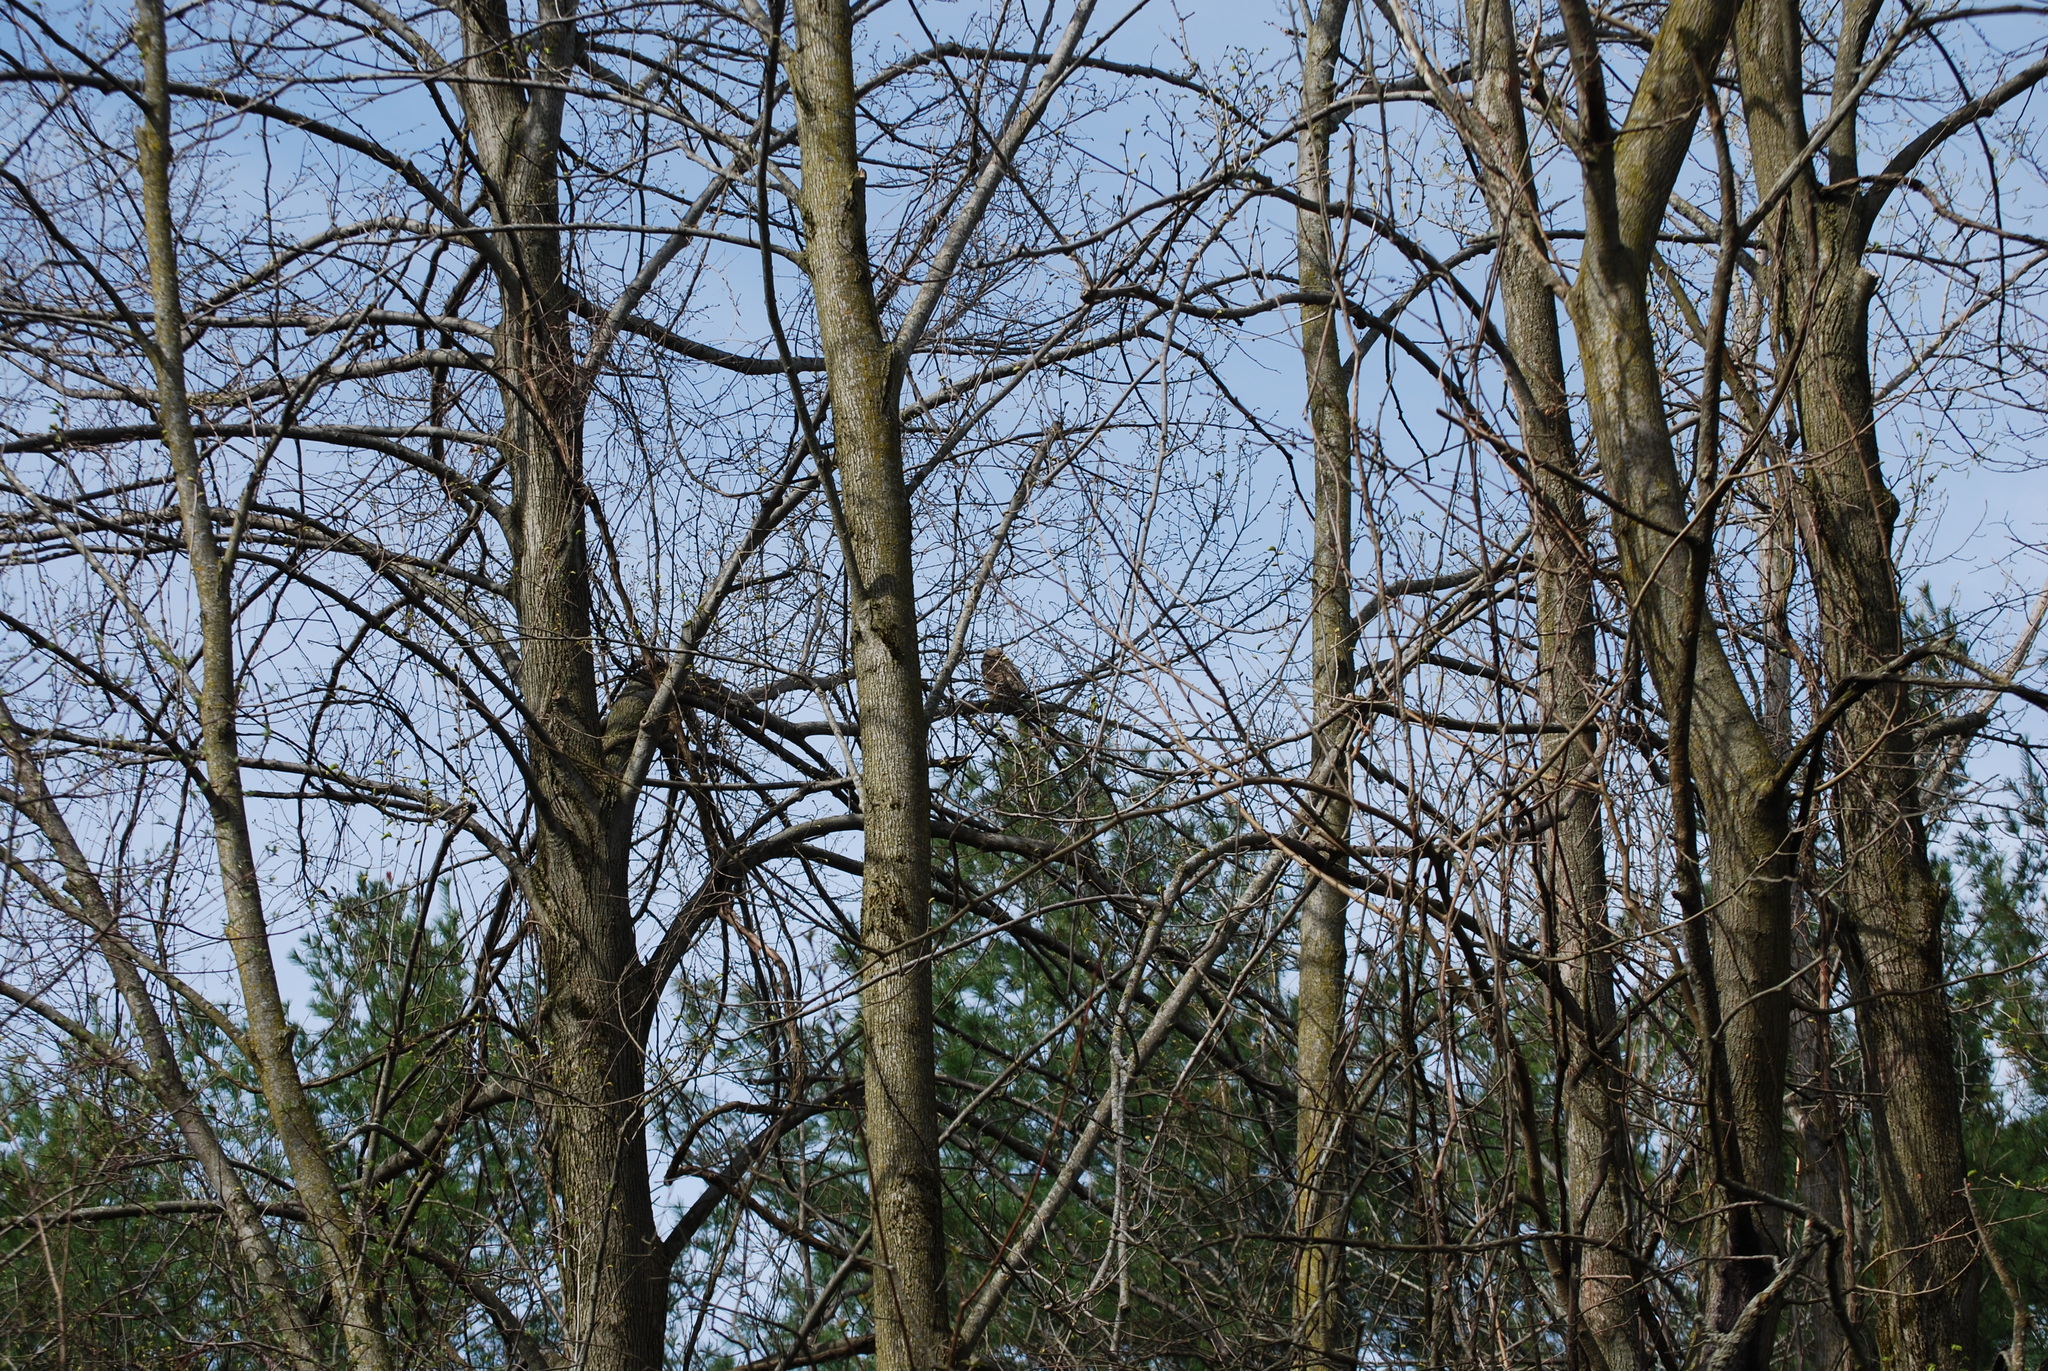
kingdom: Animalia
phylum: Chordata
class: Aves
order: Strigiformes
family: Strigidae
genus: Bubo
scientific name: Bubo virginianus
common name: Great horned owl
